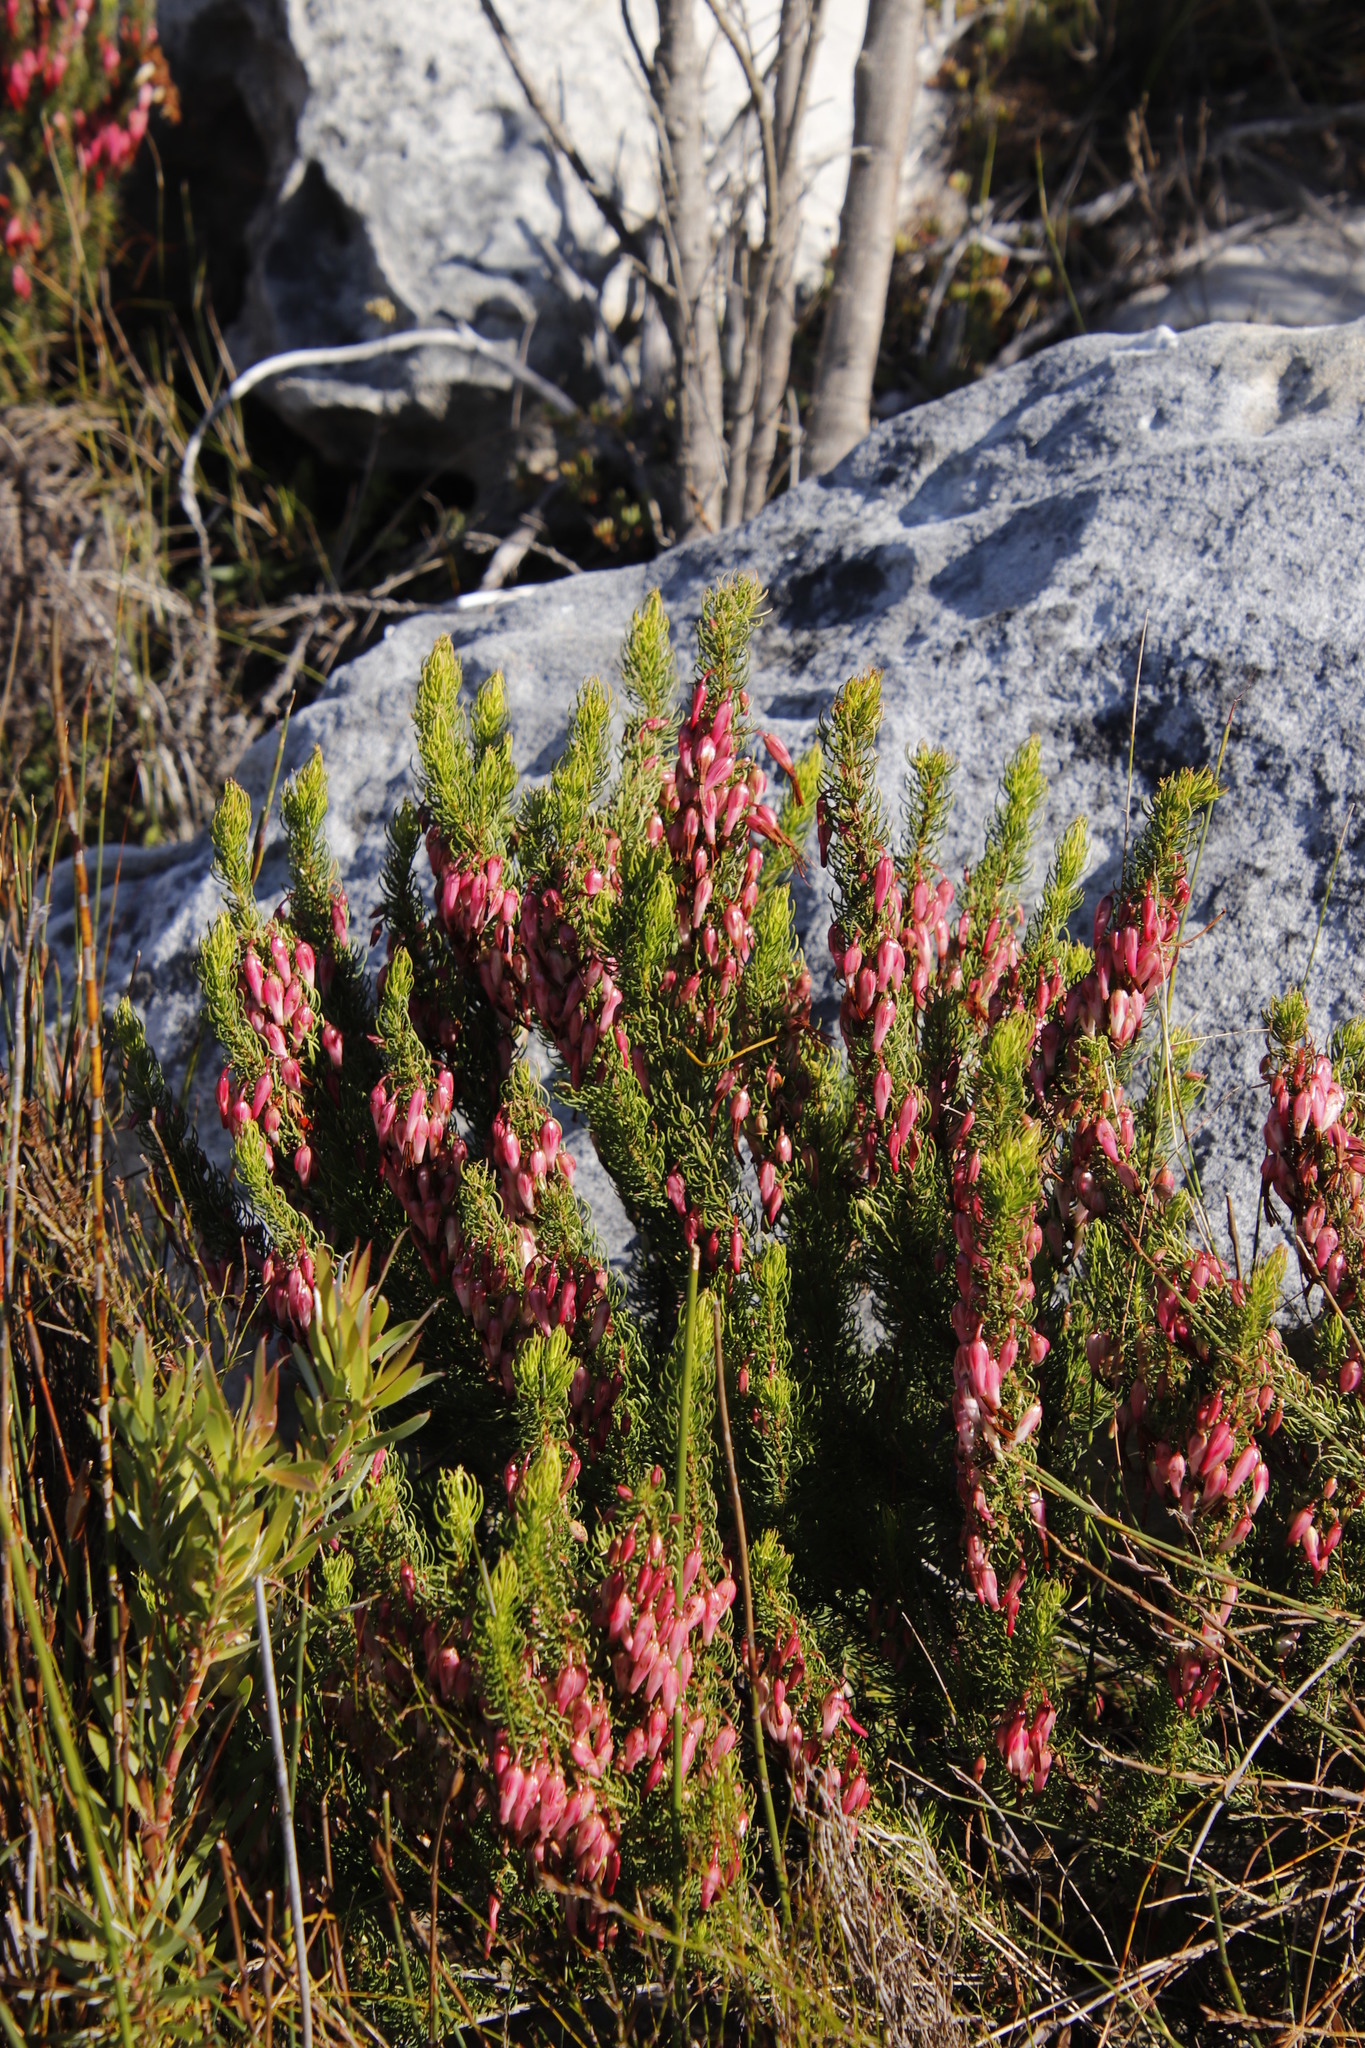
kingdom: Plantae
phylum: Tracheophyta
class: Magnoliopsida
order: Ericales
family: Ericaceae
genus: Erica
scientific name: Erica plukenetii
